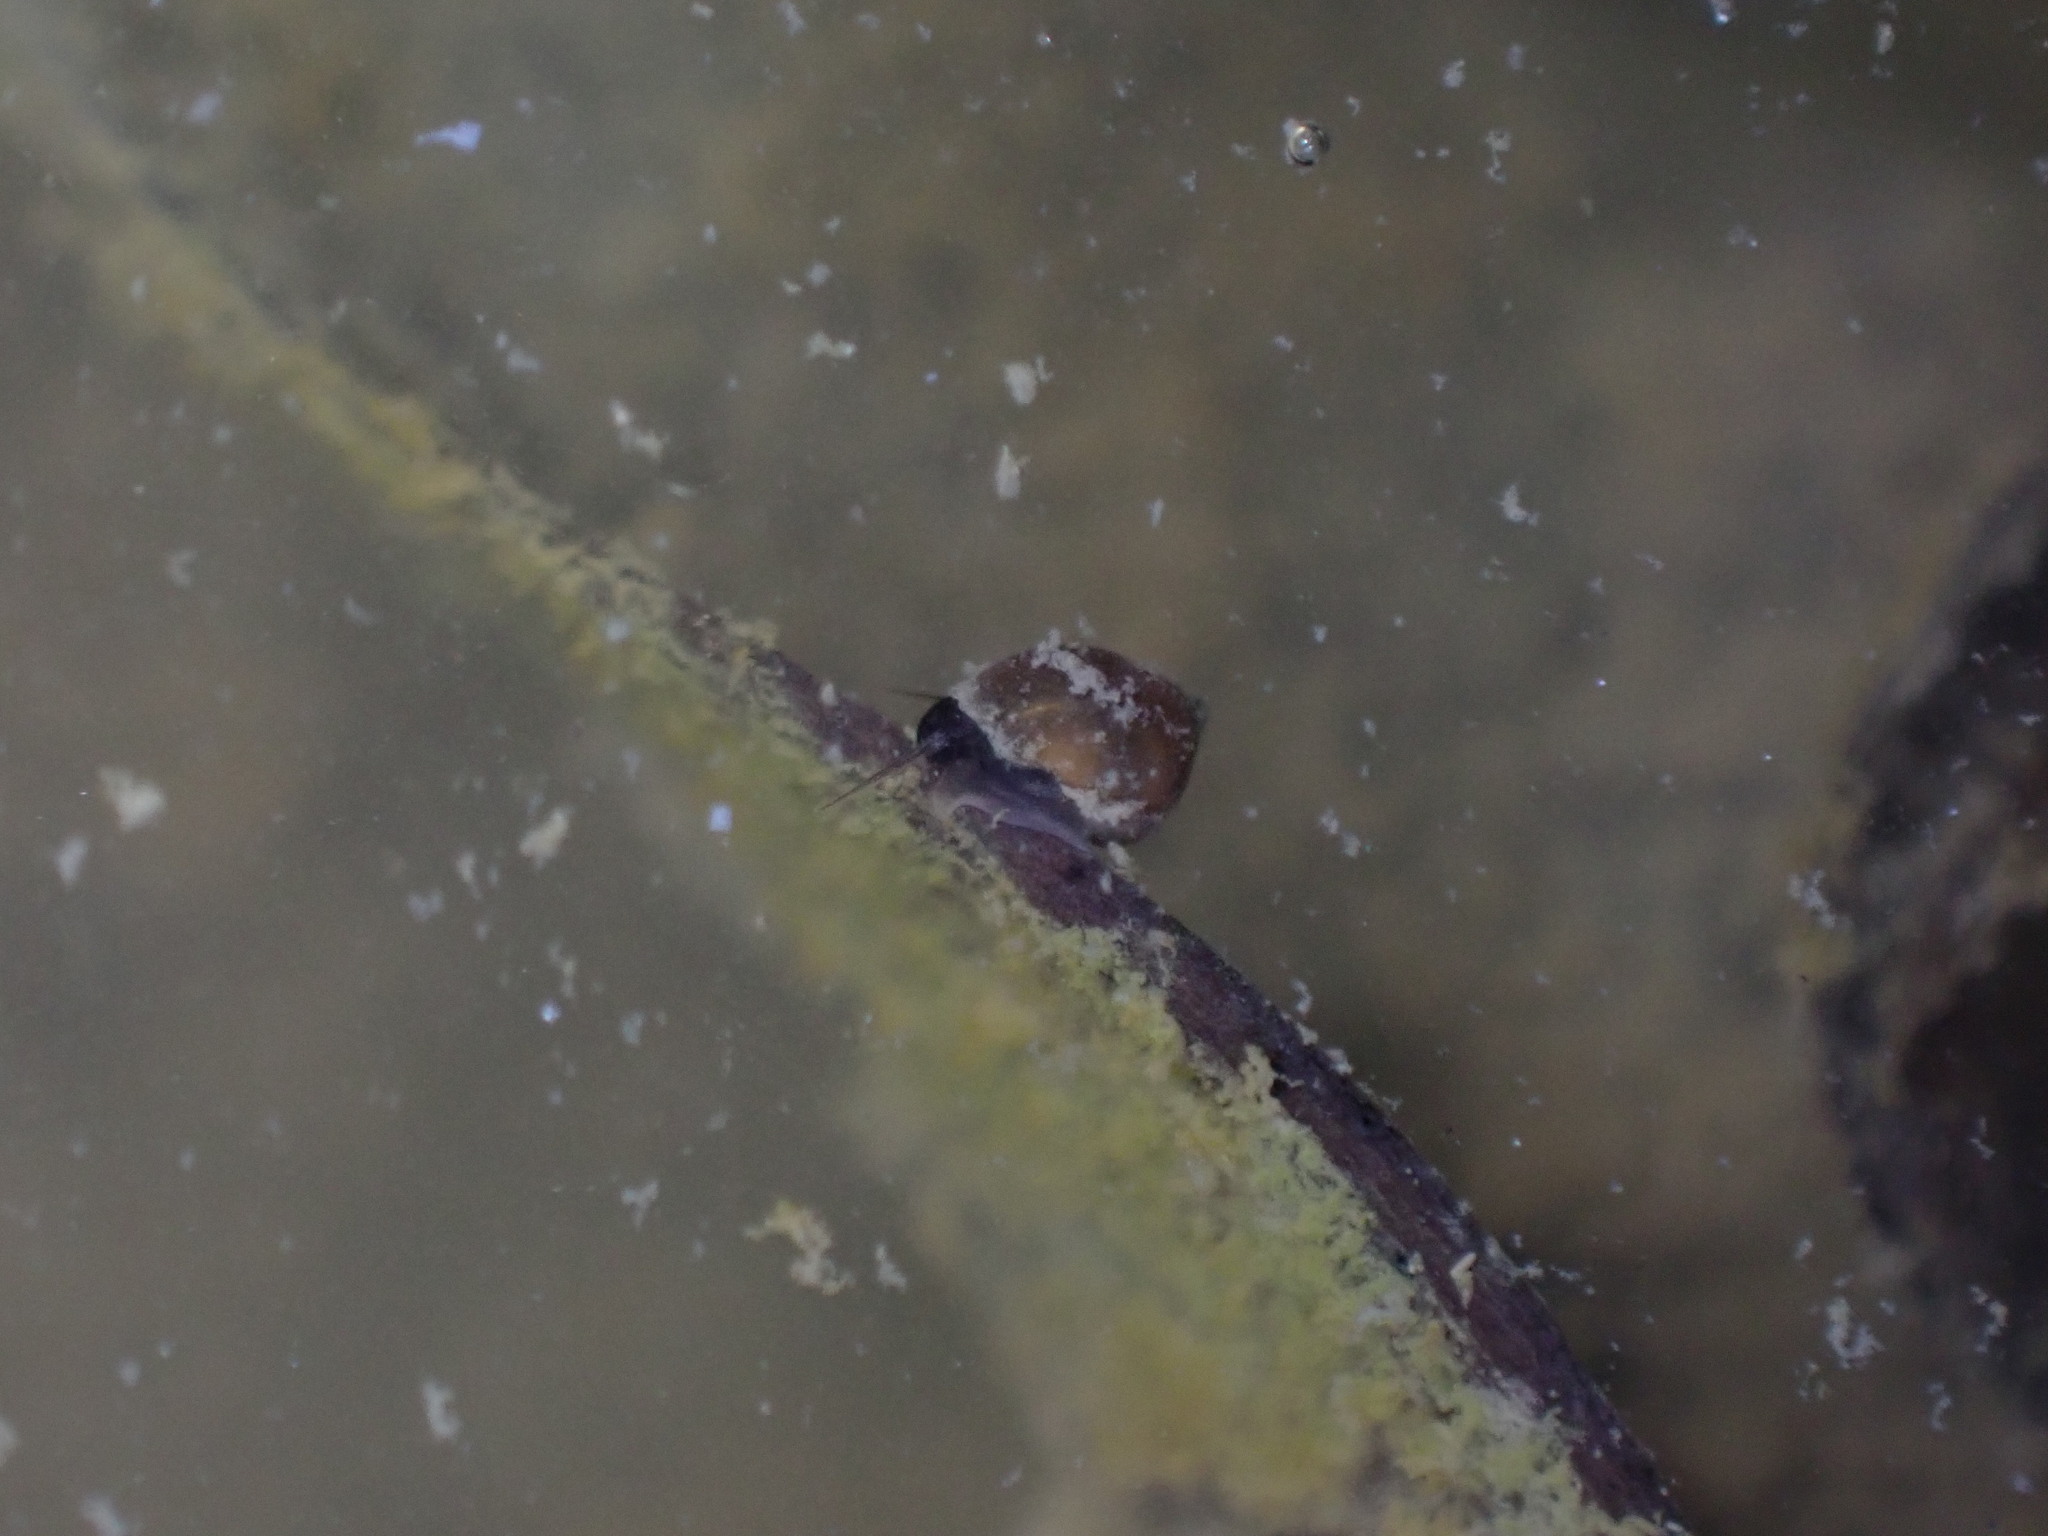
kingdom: Animalia
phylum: Mollusca
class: Gastropoda
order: Littorinimorpha
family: Tateidae
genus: Potamopyrgus
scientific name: Potamopyrgus estuarinus
